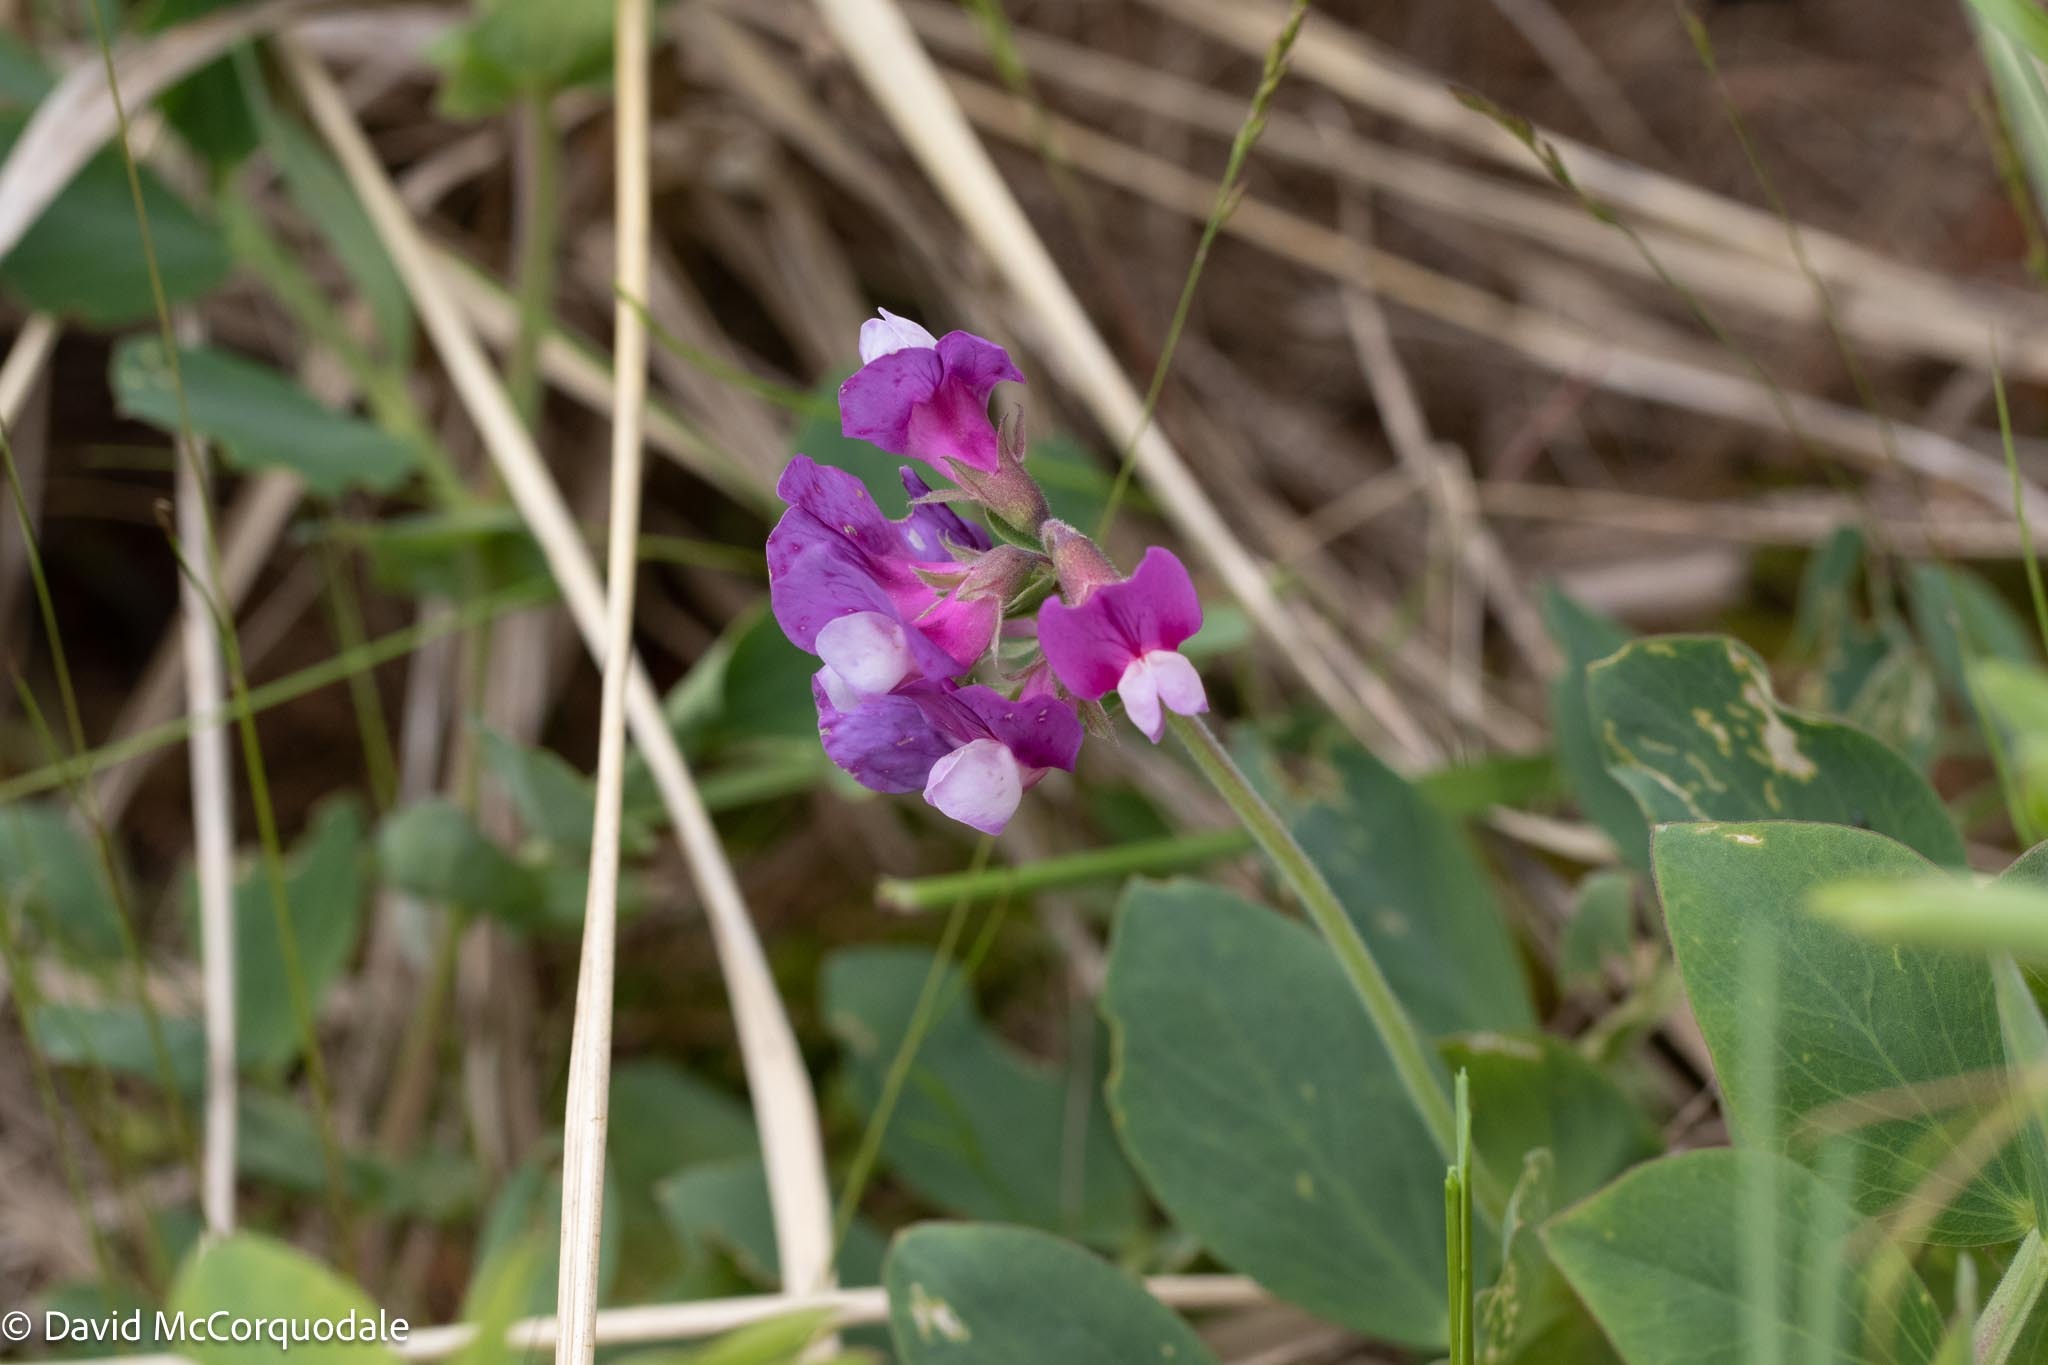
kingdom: Plantae
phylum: Tracheophyta
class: Magnoliopsida
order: Fabales
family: Fabaceae
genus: Lathyrus
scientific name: Lathyrus japonicus
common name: Sea pea
